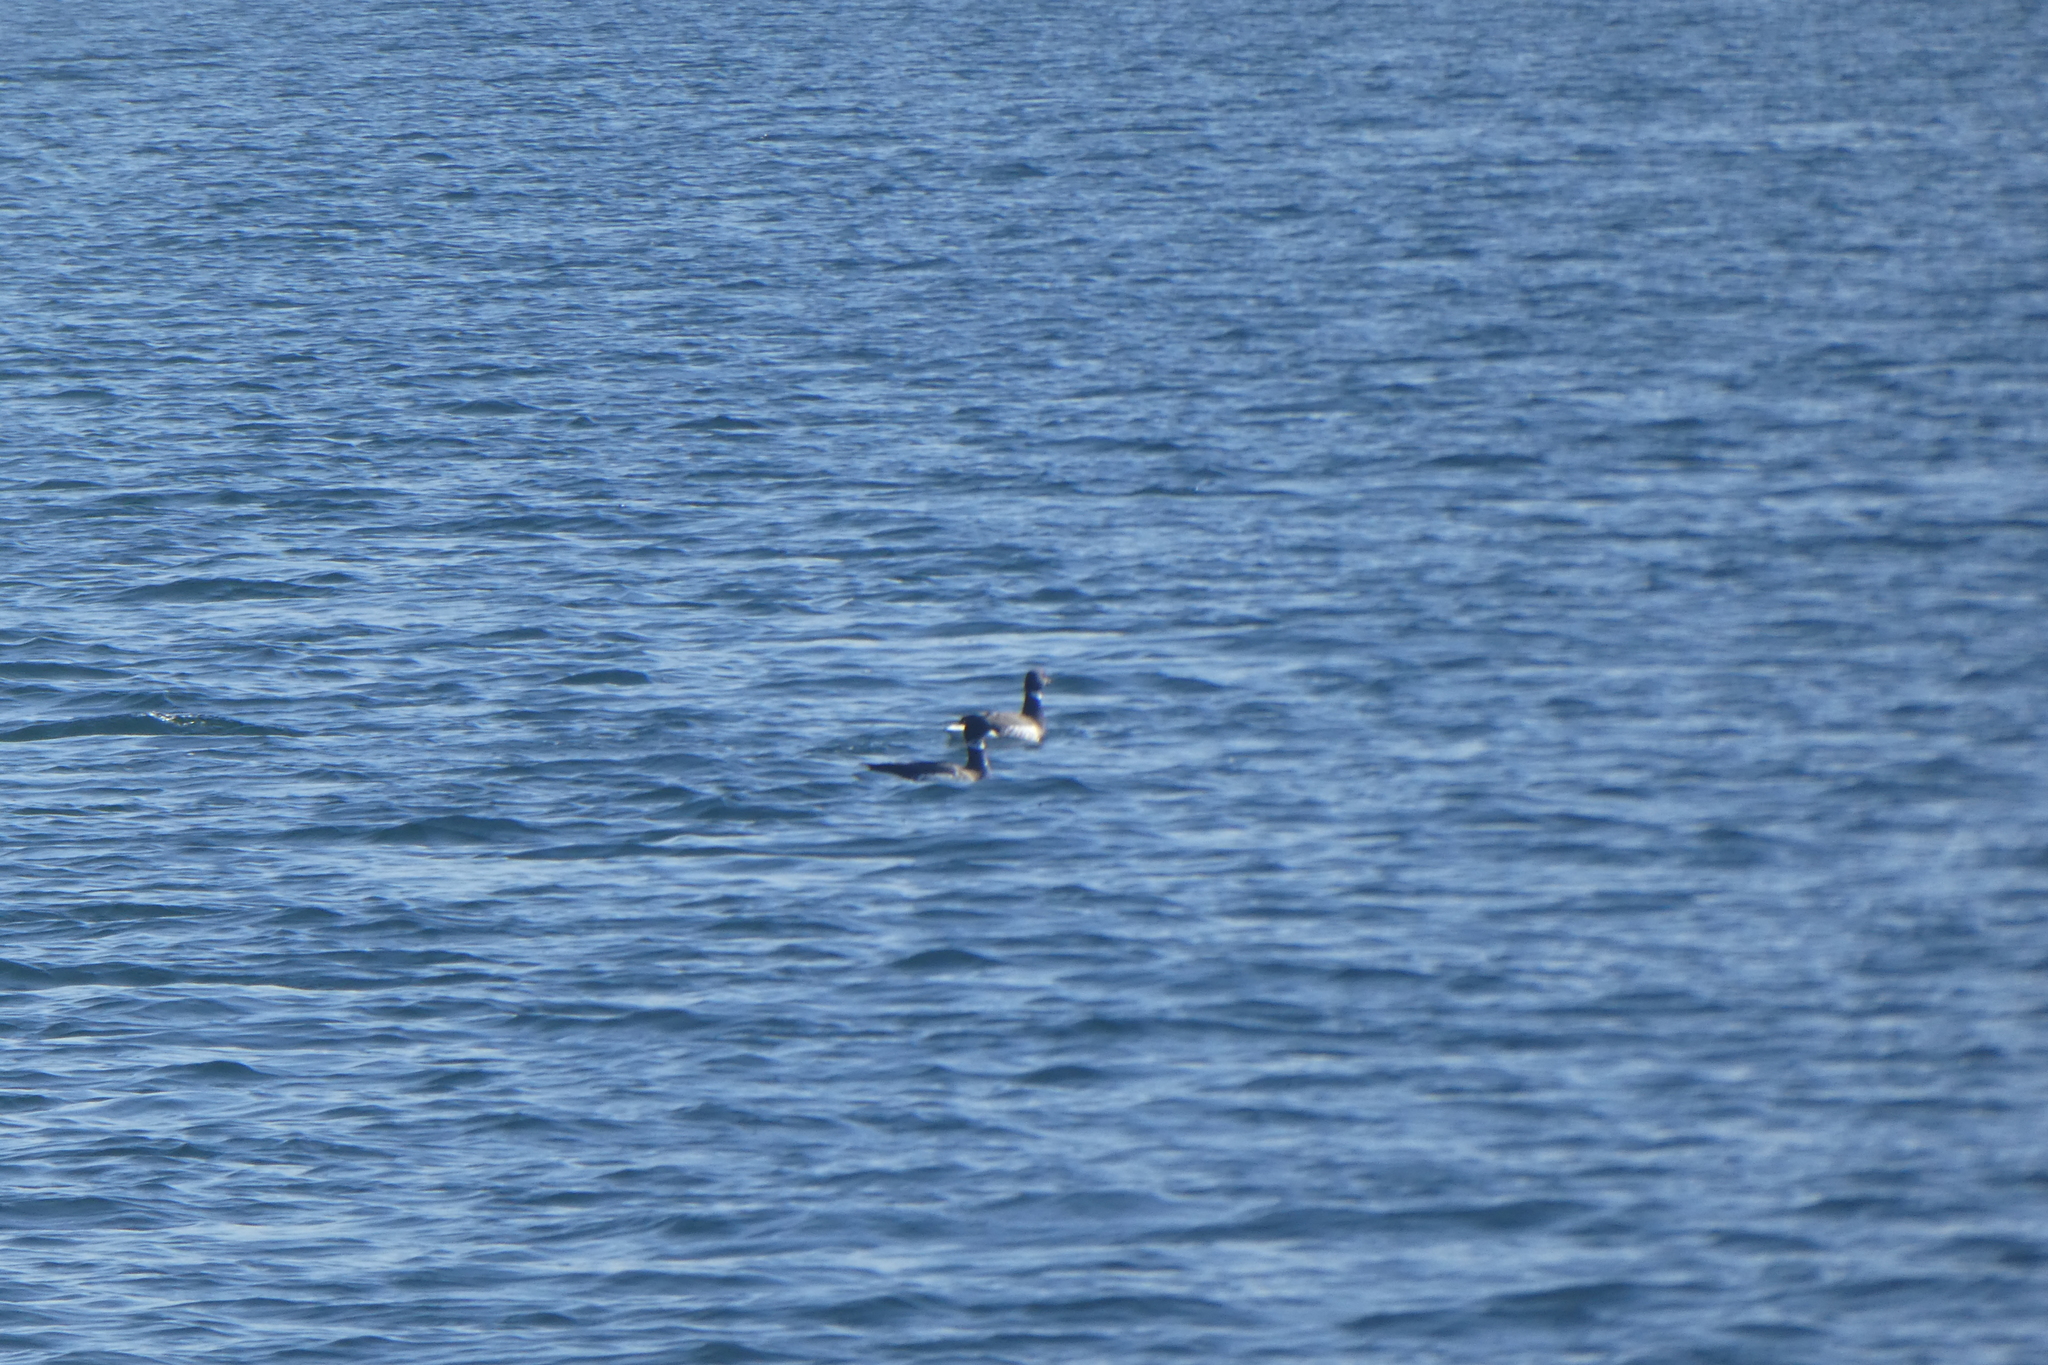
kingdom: Animalia
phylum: Chordata
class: Aves
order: Anseriformes
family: Anatidae
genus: Branta
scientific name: Branta bernicla
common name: Brant goose
